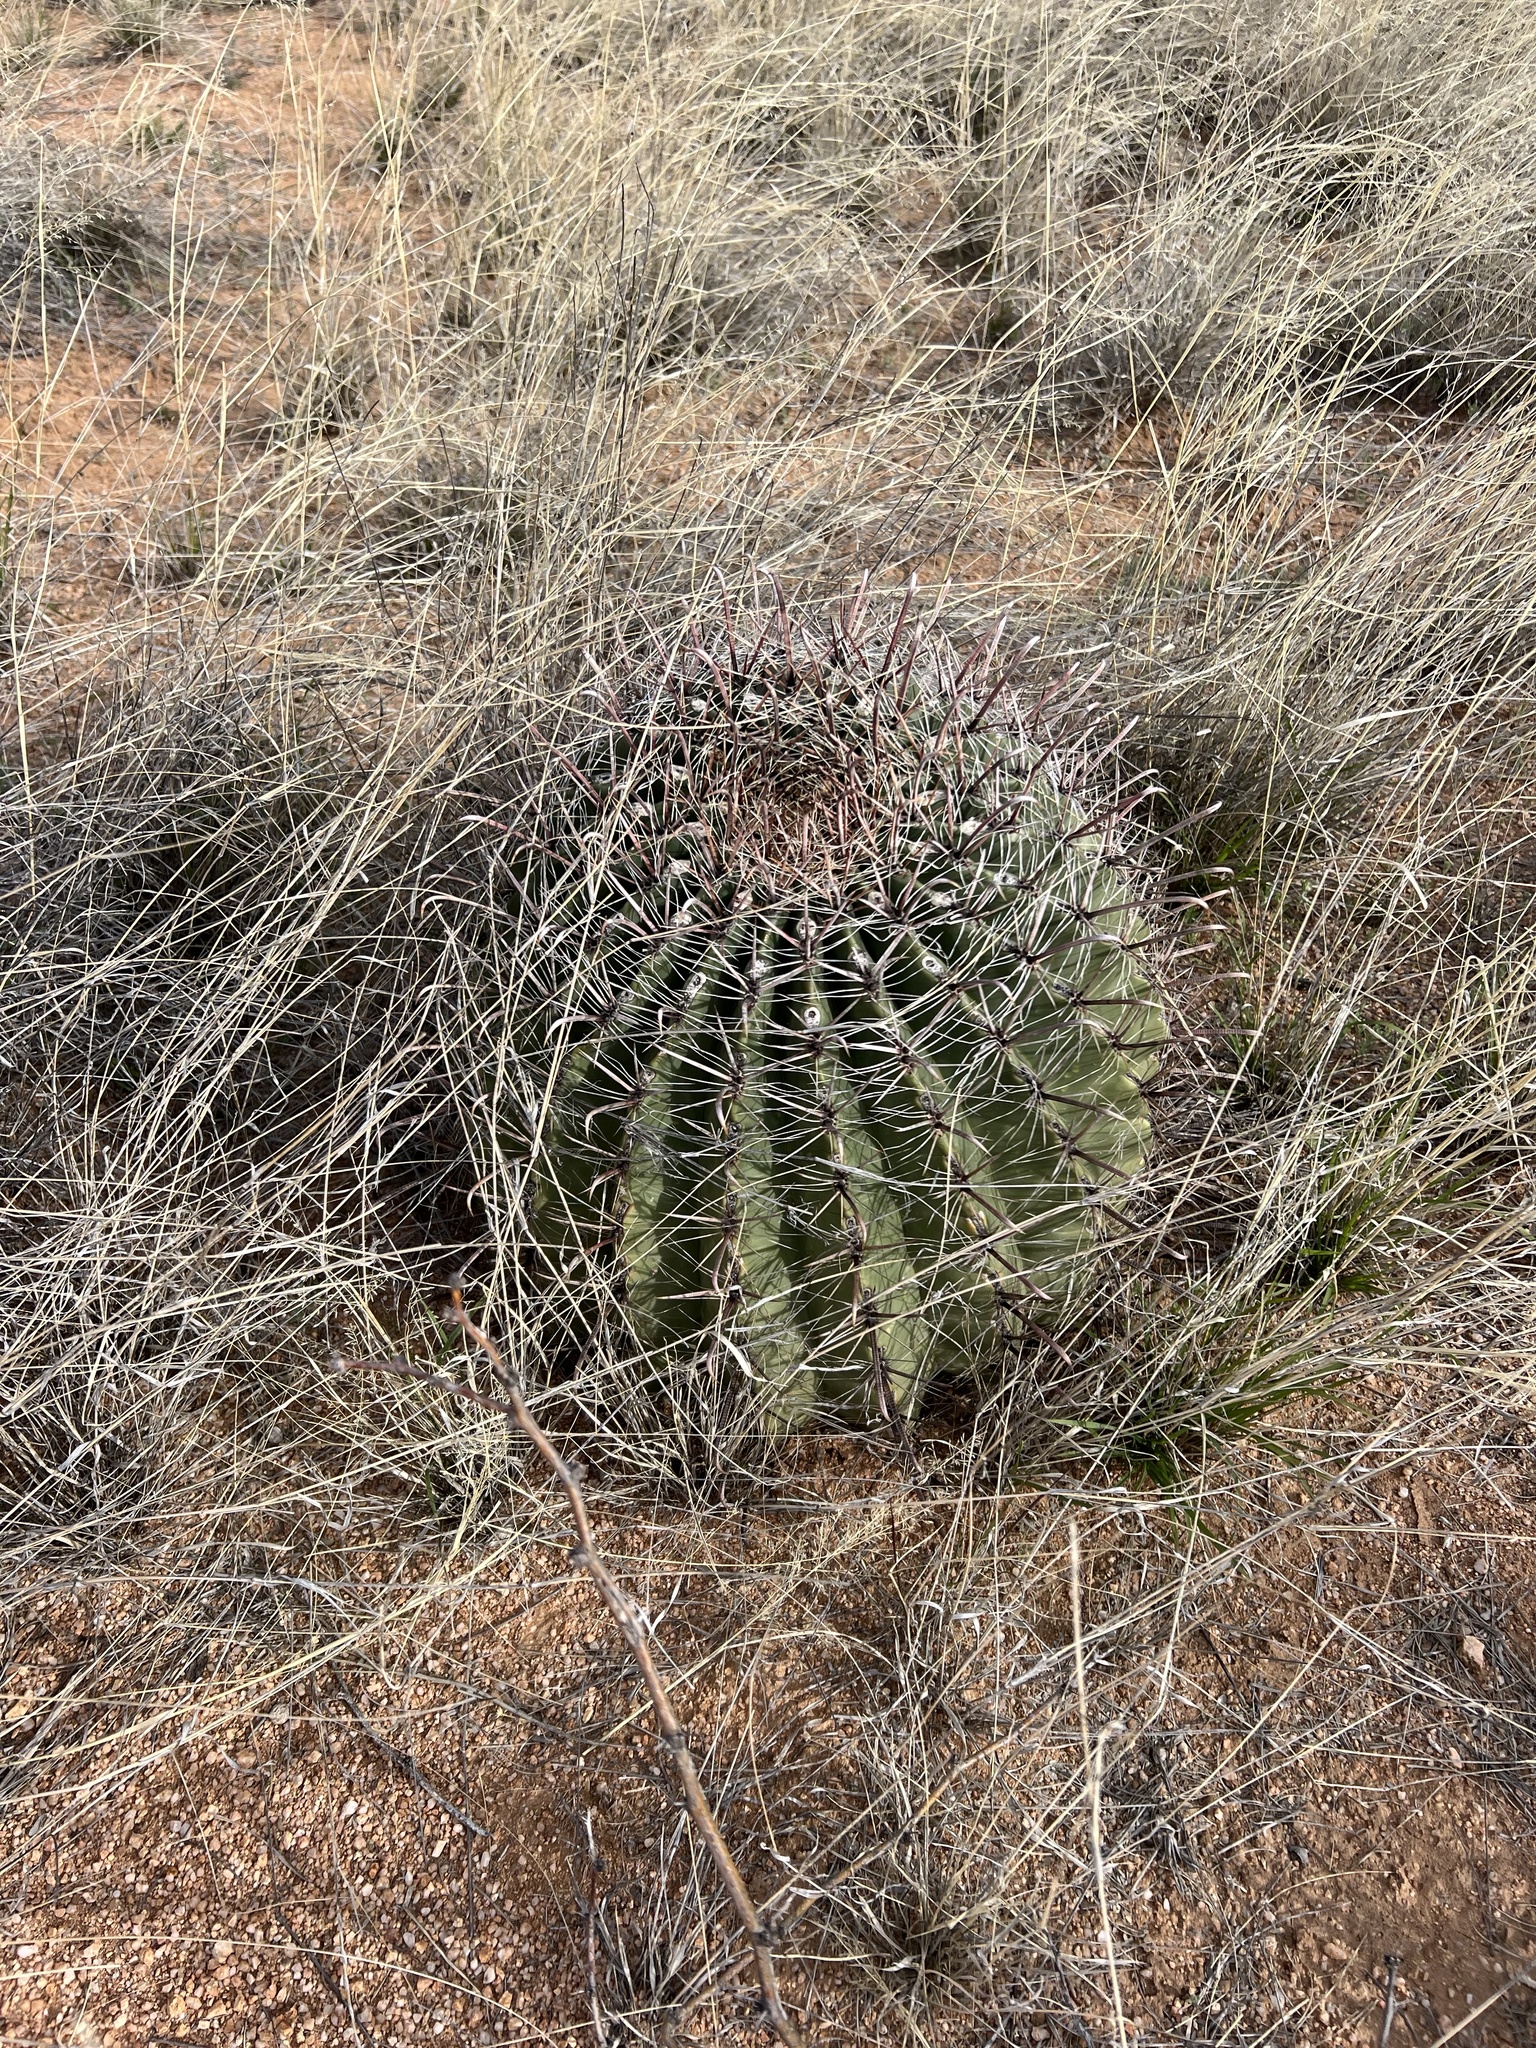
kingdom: Plantae
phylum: Tracheophyta
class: Magnoliopsida
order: Caryophyllales
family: Cactaceae
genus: Ferocactus
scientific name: Ferocactus wislizeni
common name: Candy barrel cactus
